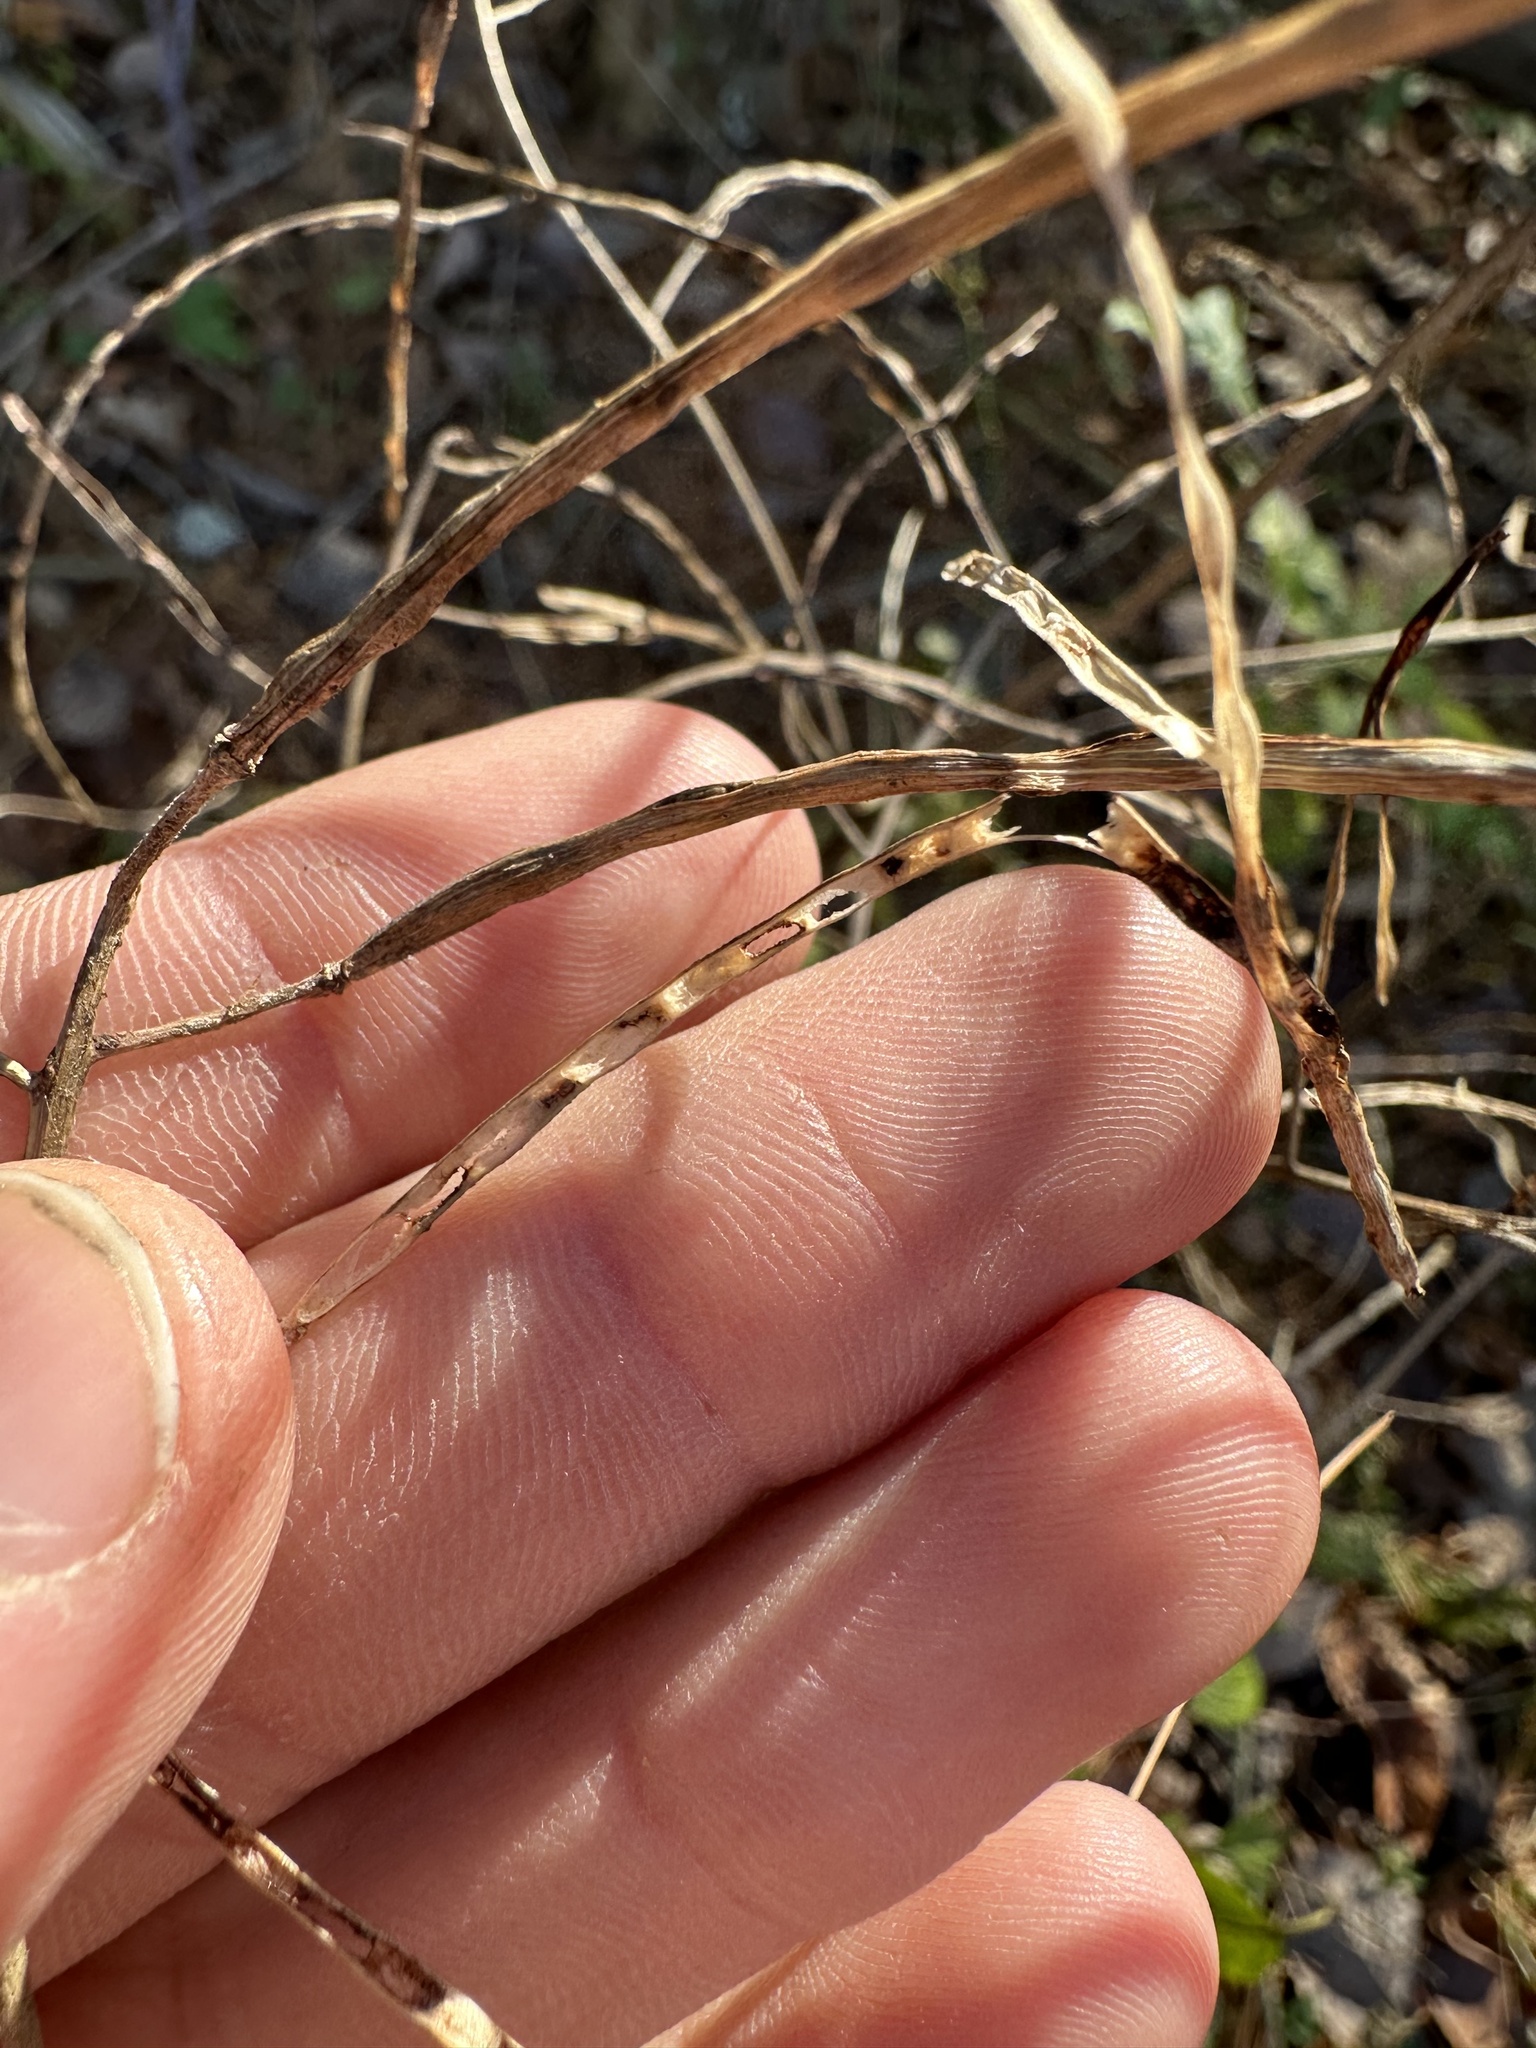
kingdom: Plantae
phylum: Tracheophyta
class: Magnoliopsida
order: Brassicales
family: Brassicaceae
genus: Hesperis
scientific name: Hesperis matronalis
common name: Dame's-violet
